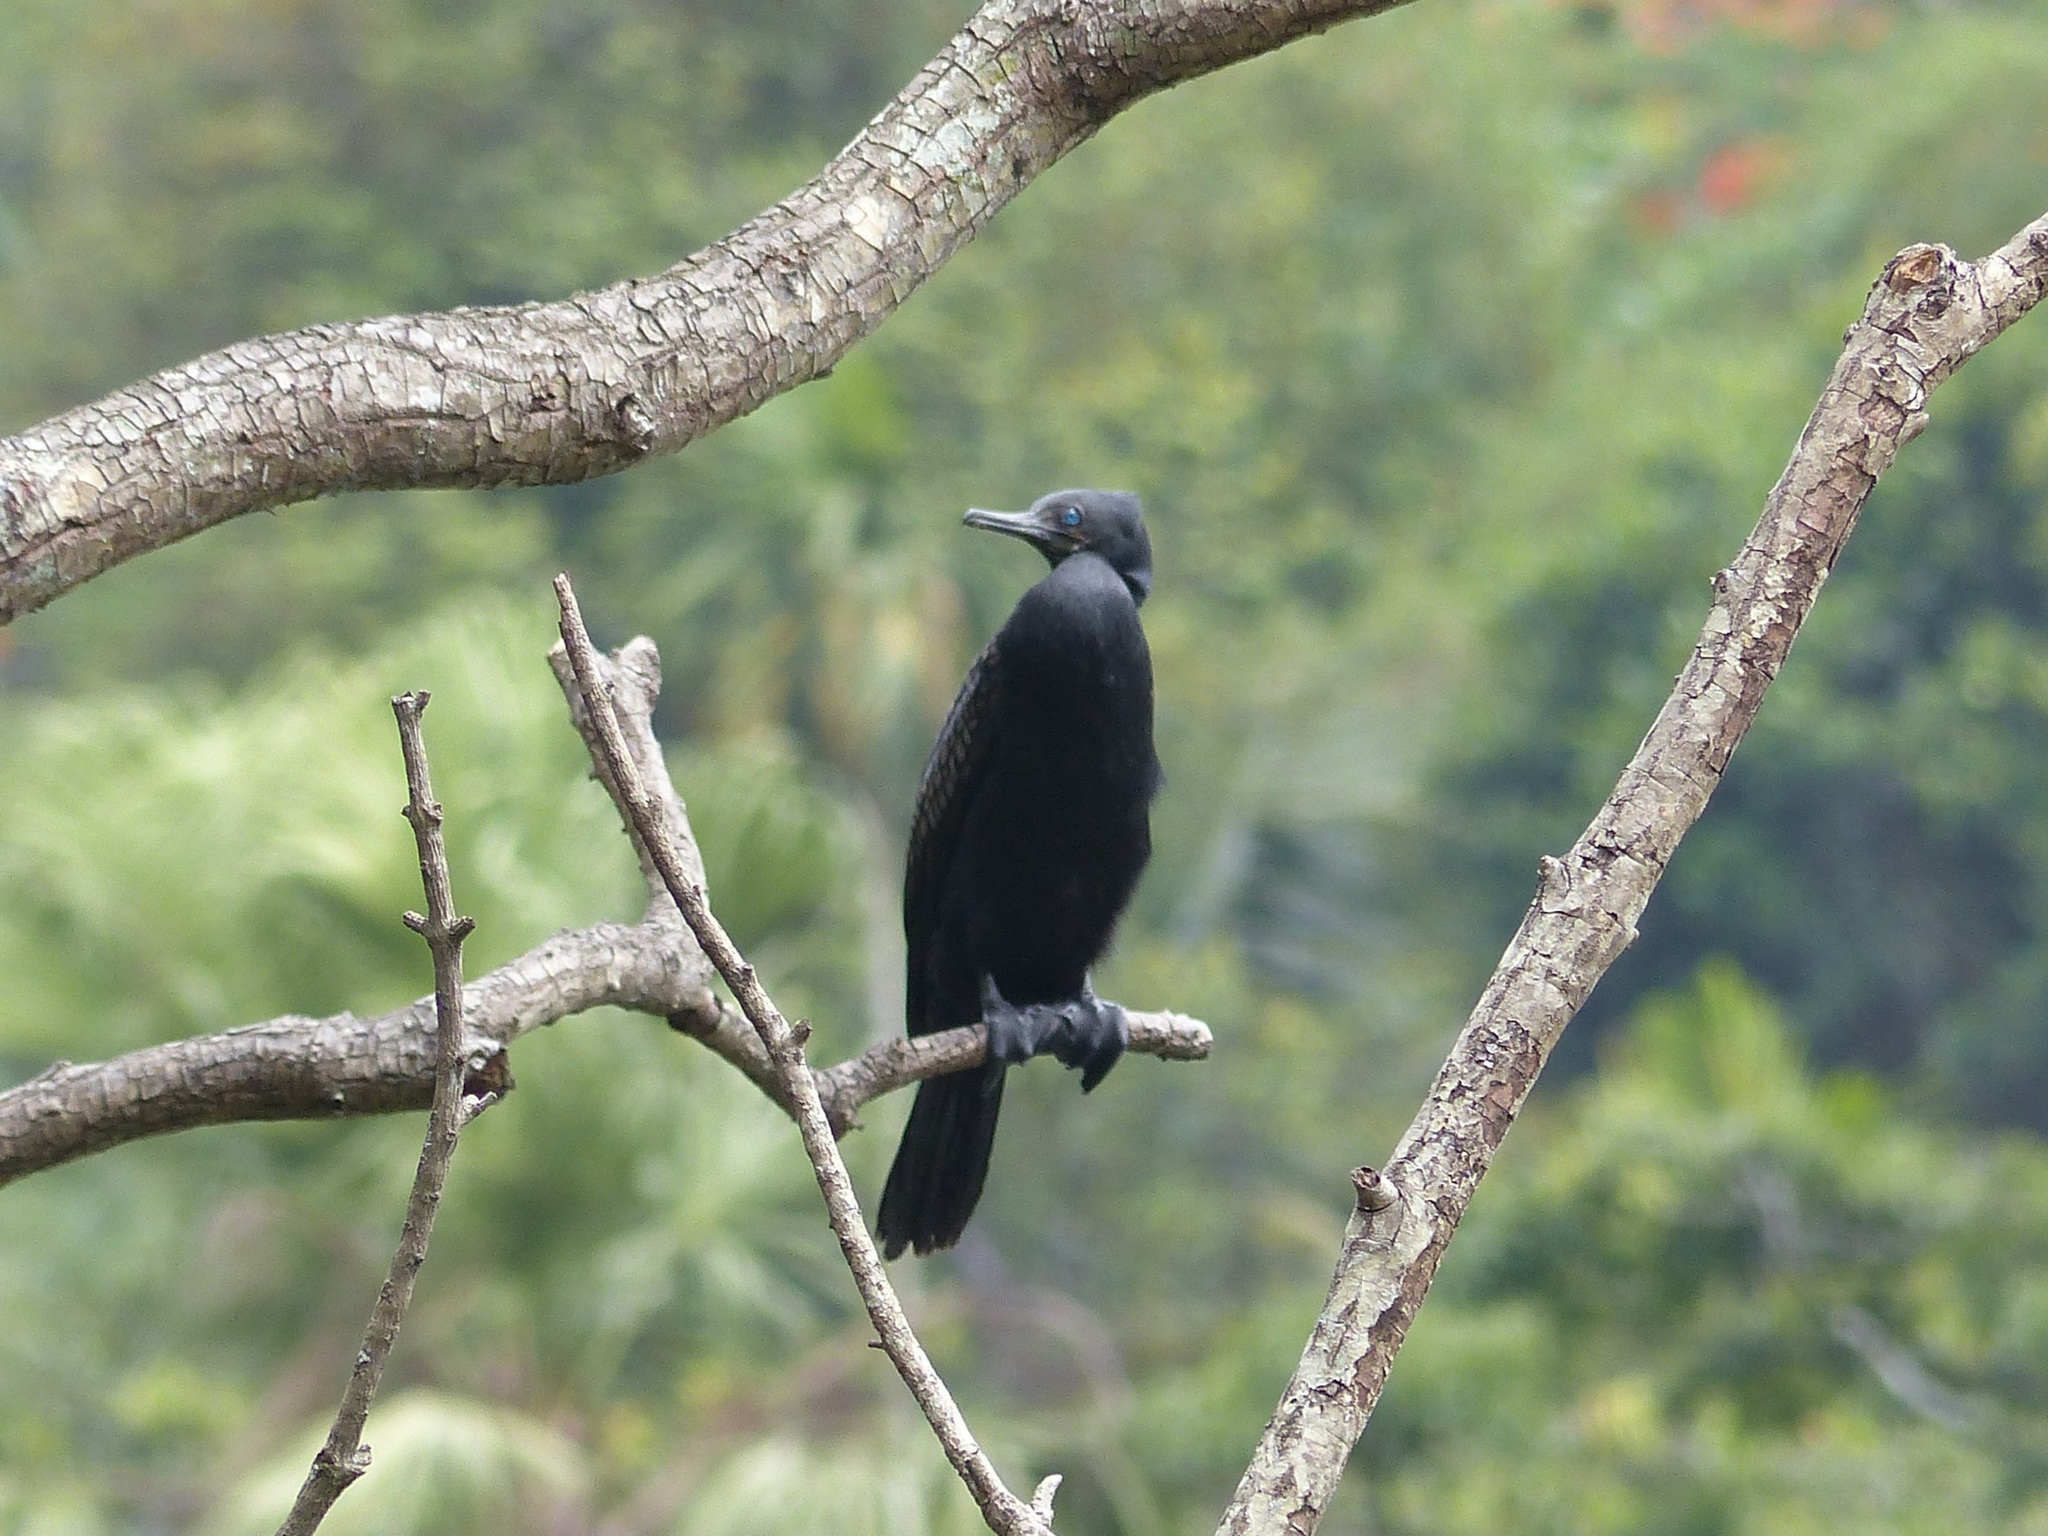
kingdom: Animalia
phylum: Chordata
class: Aves
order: Suliformes
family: Phalacrocoracidae
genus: Phalacrocorax
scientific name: Phalacrocorax fuscicollis
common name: Indian cormorant
